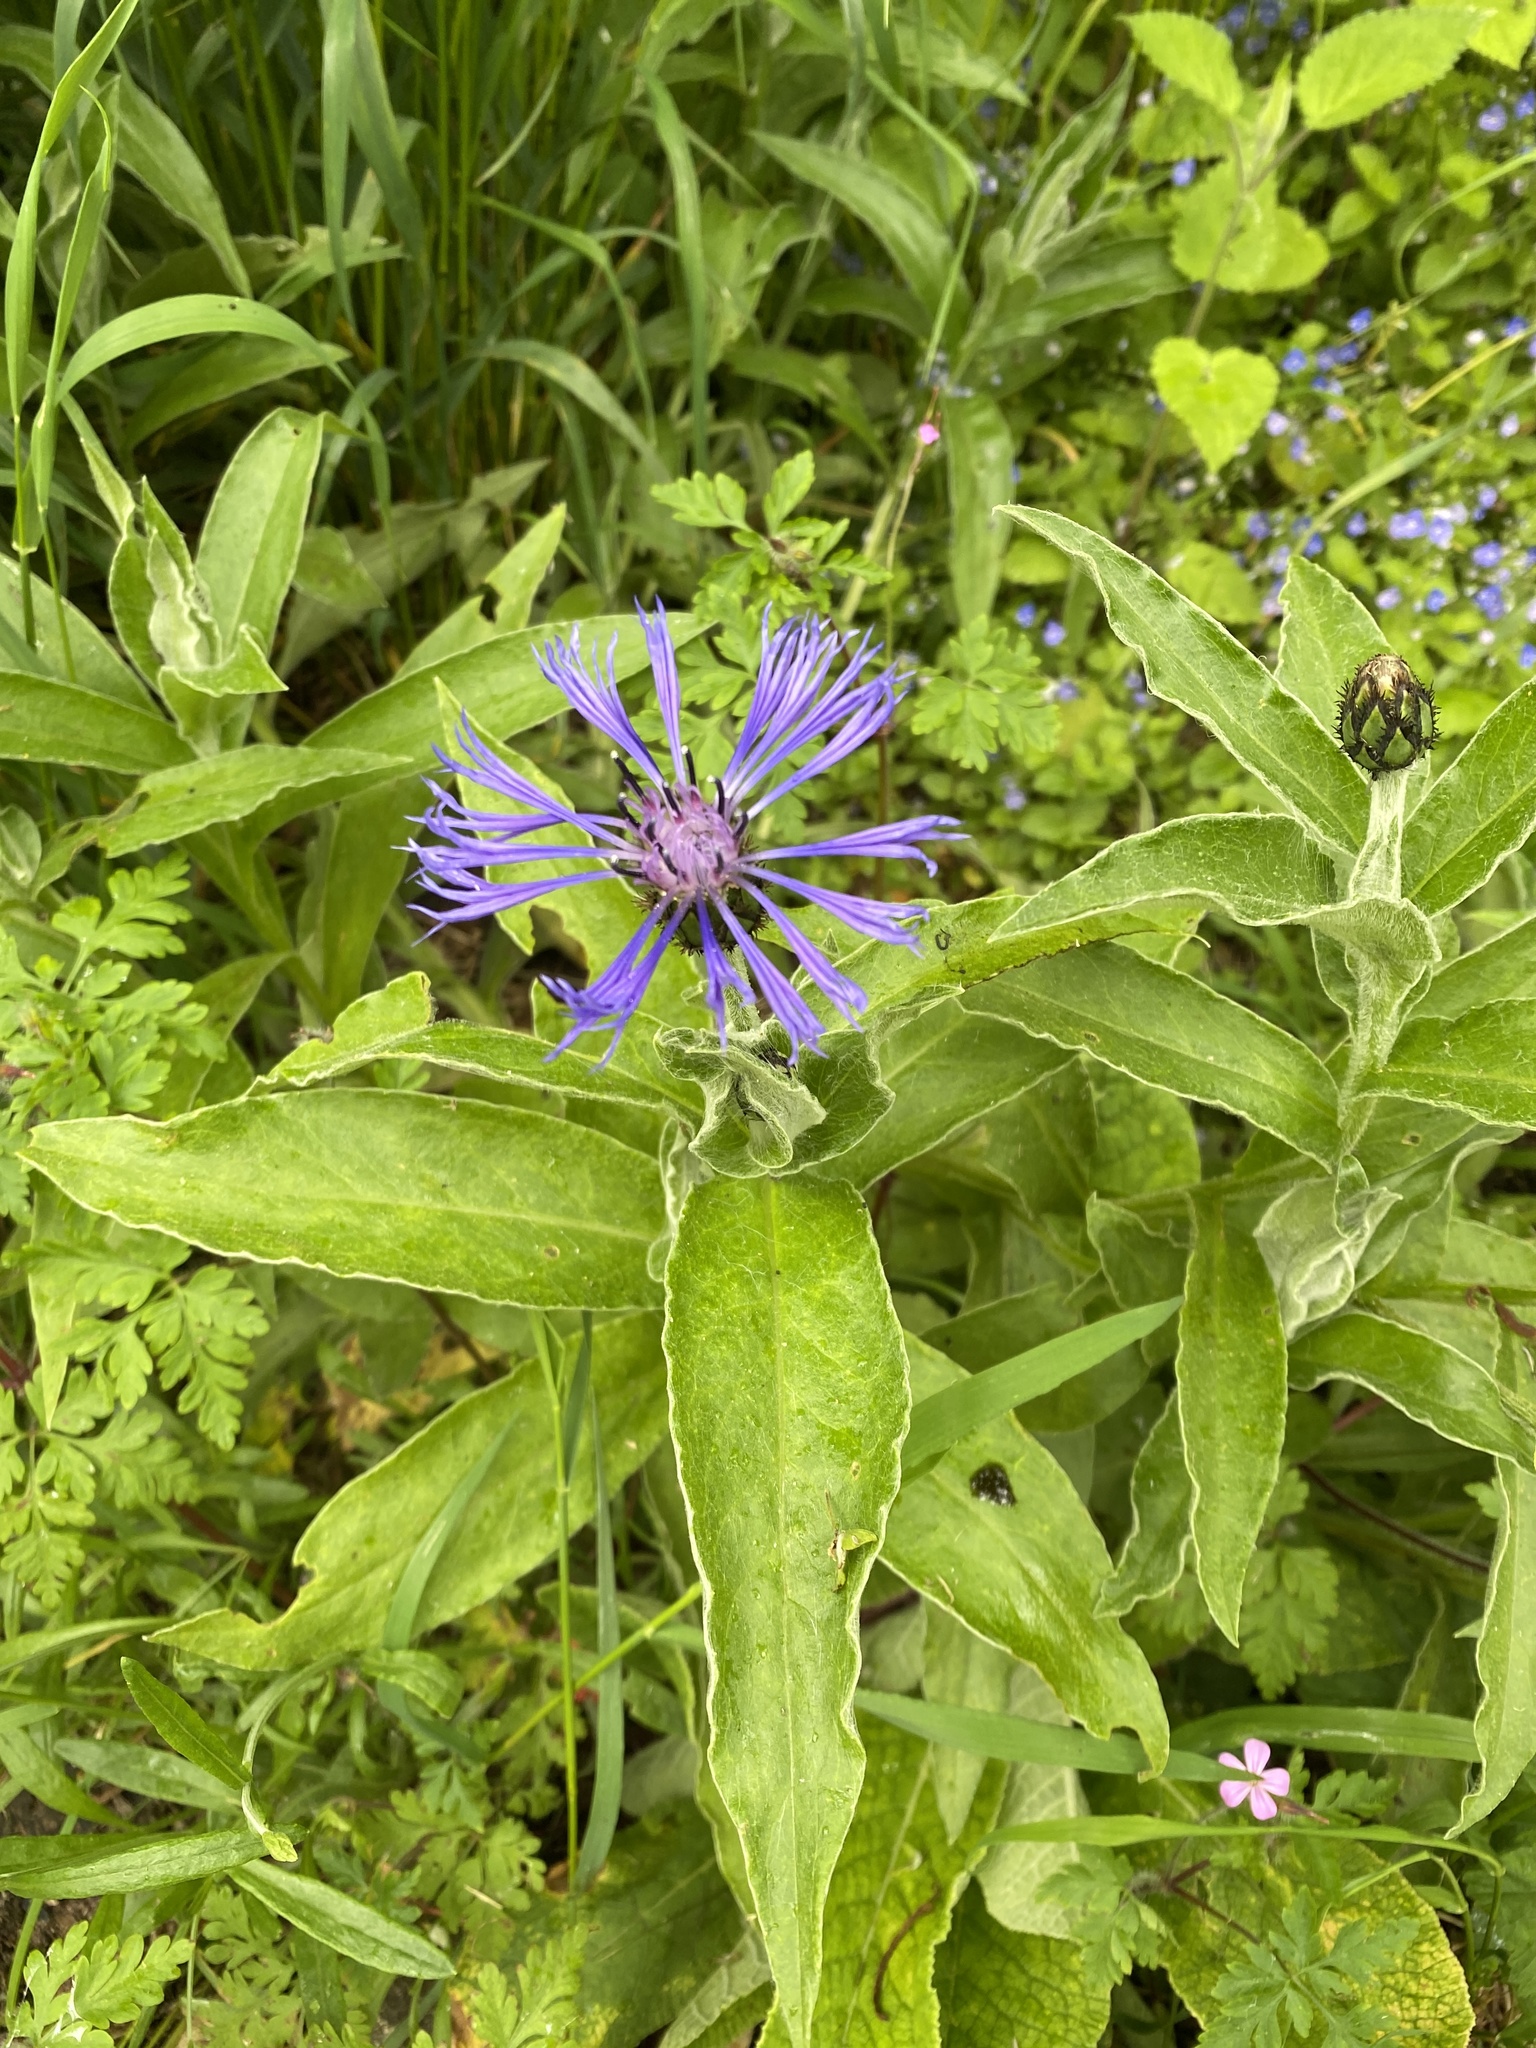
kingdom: Plantae
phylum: Tracheophyta
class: Magnoliopsida
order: Asterales
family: Asteraceae
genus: Centaurea
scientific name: Centaurea montana
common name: Perennial cornflower
